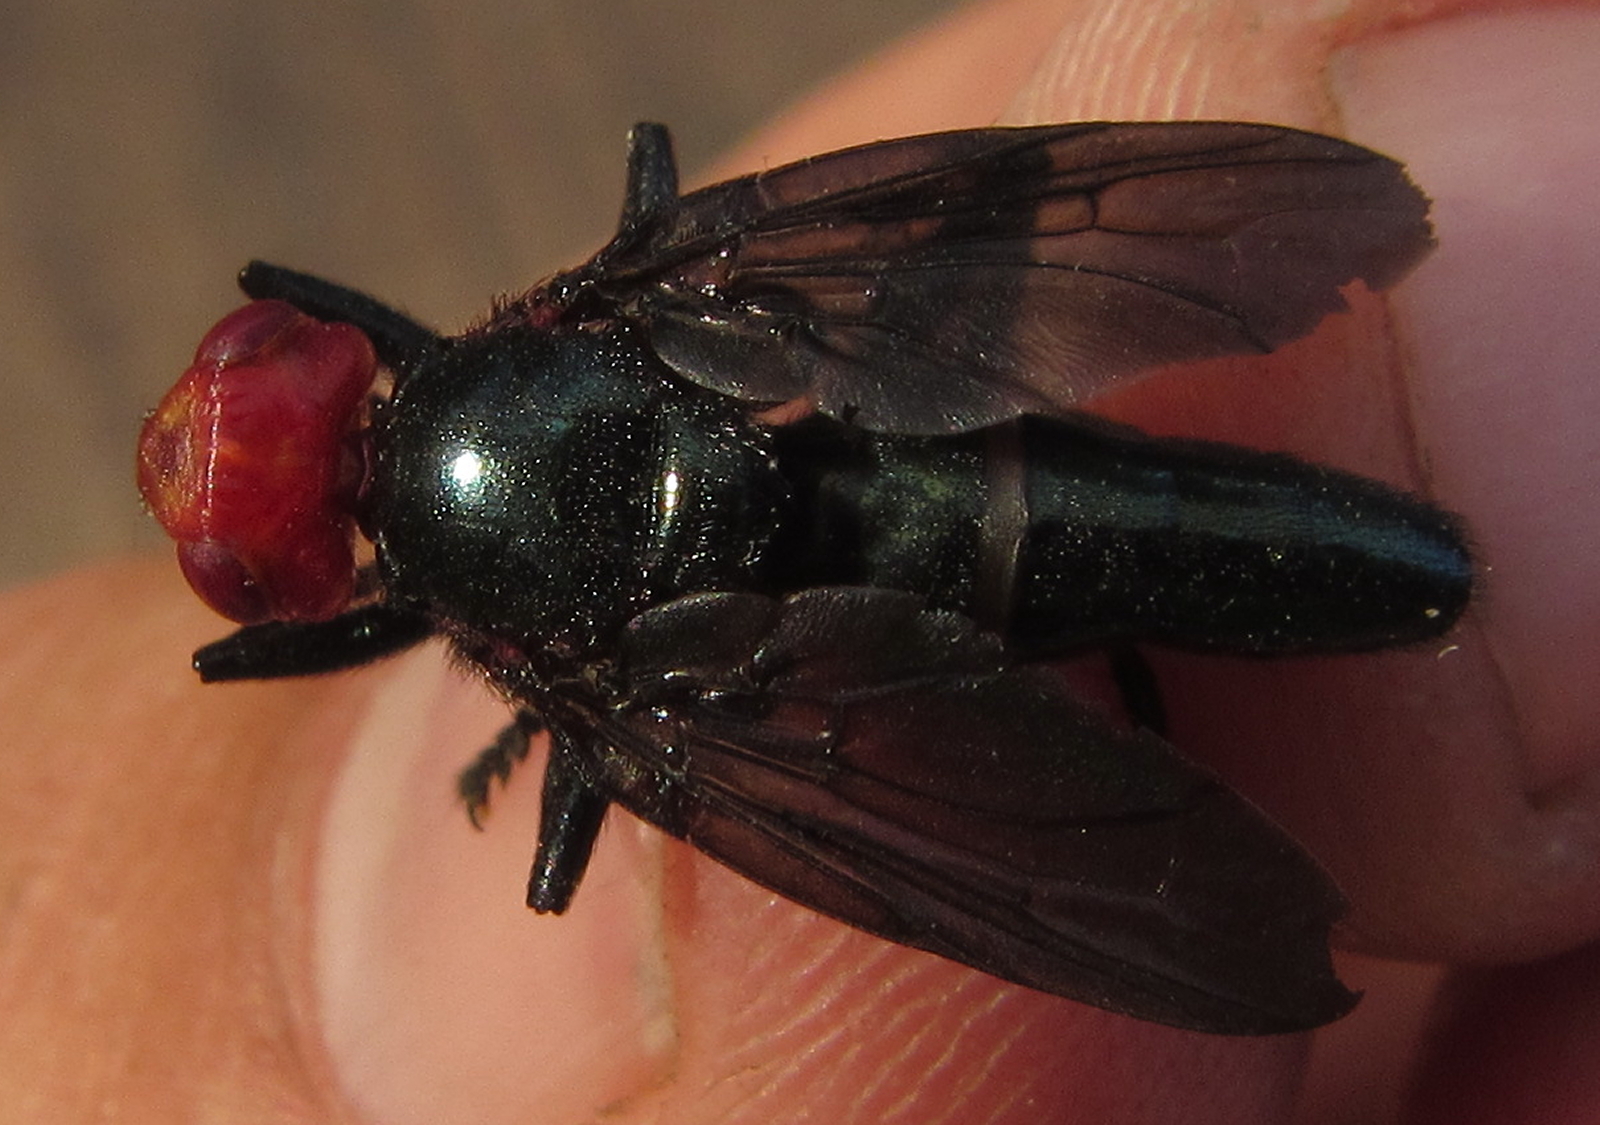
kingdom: Animalia
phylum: Arthropoda
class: Insecta
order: Diptera
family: Platystomatidae
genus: Bromophila
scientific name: Bromophila caffra
